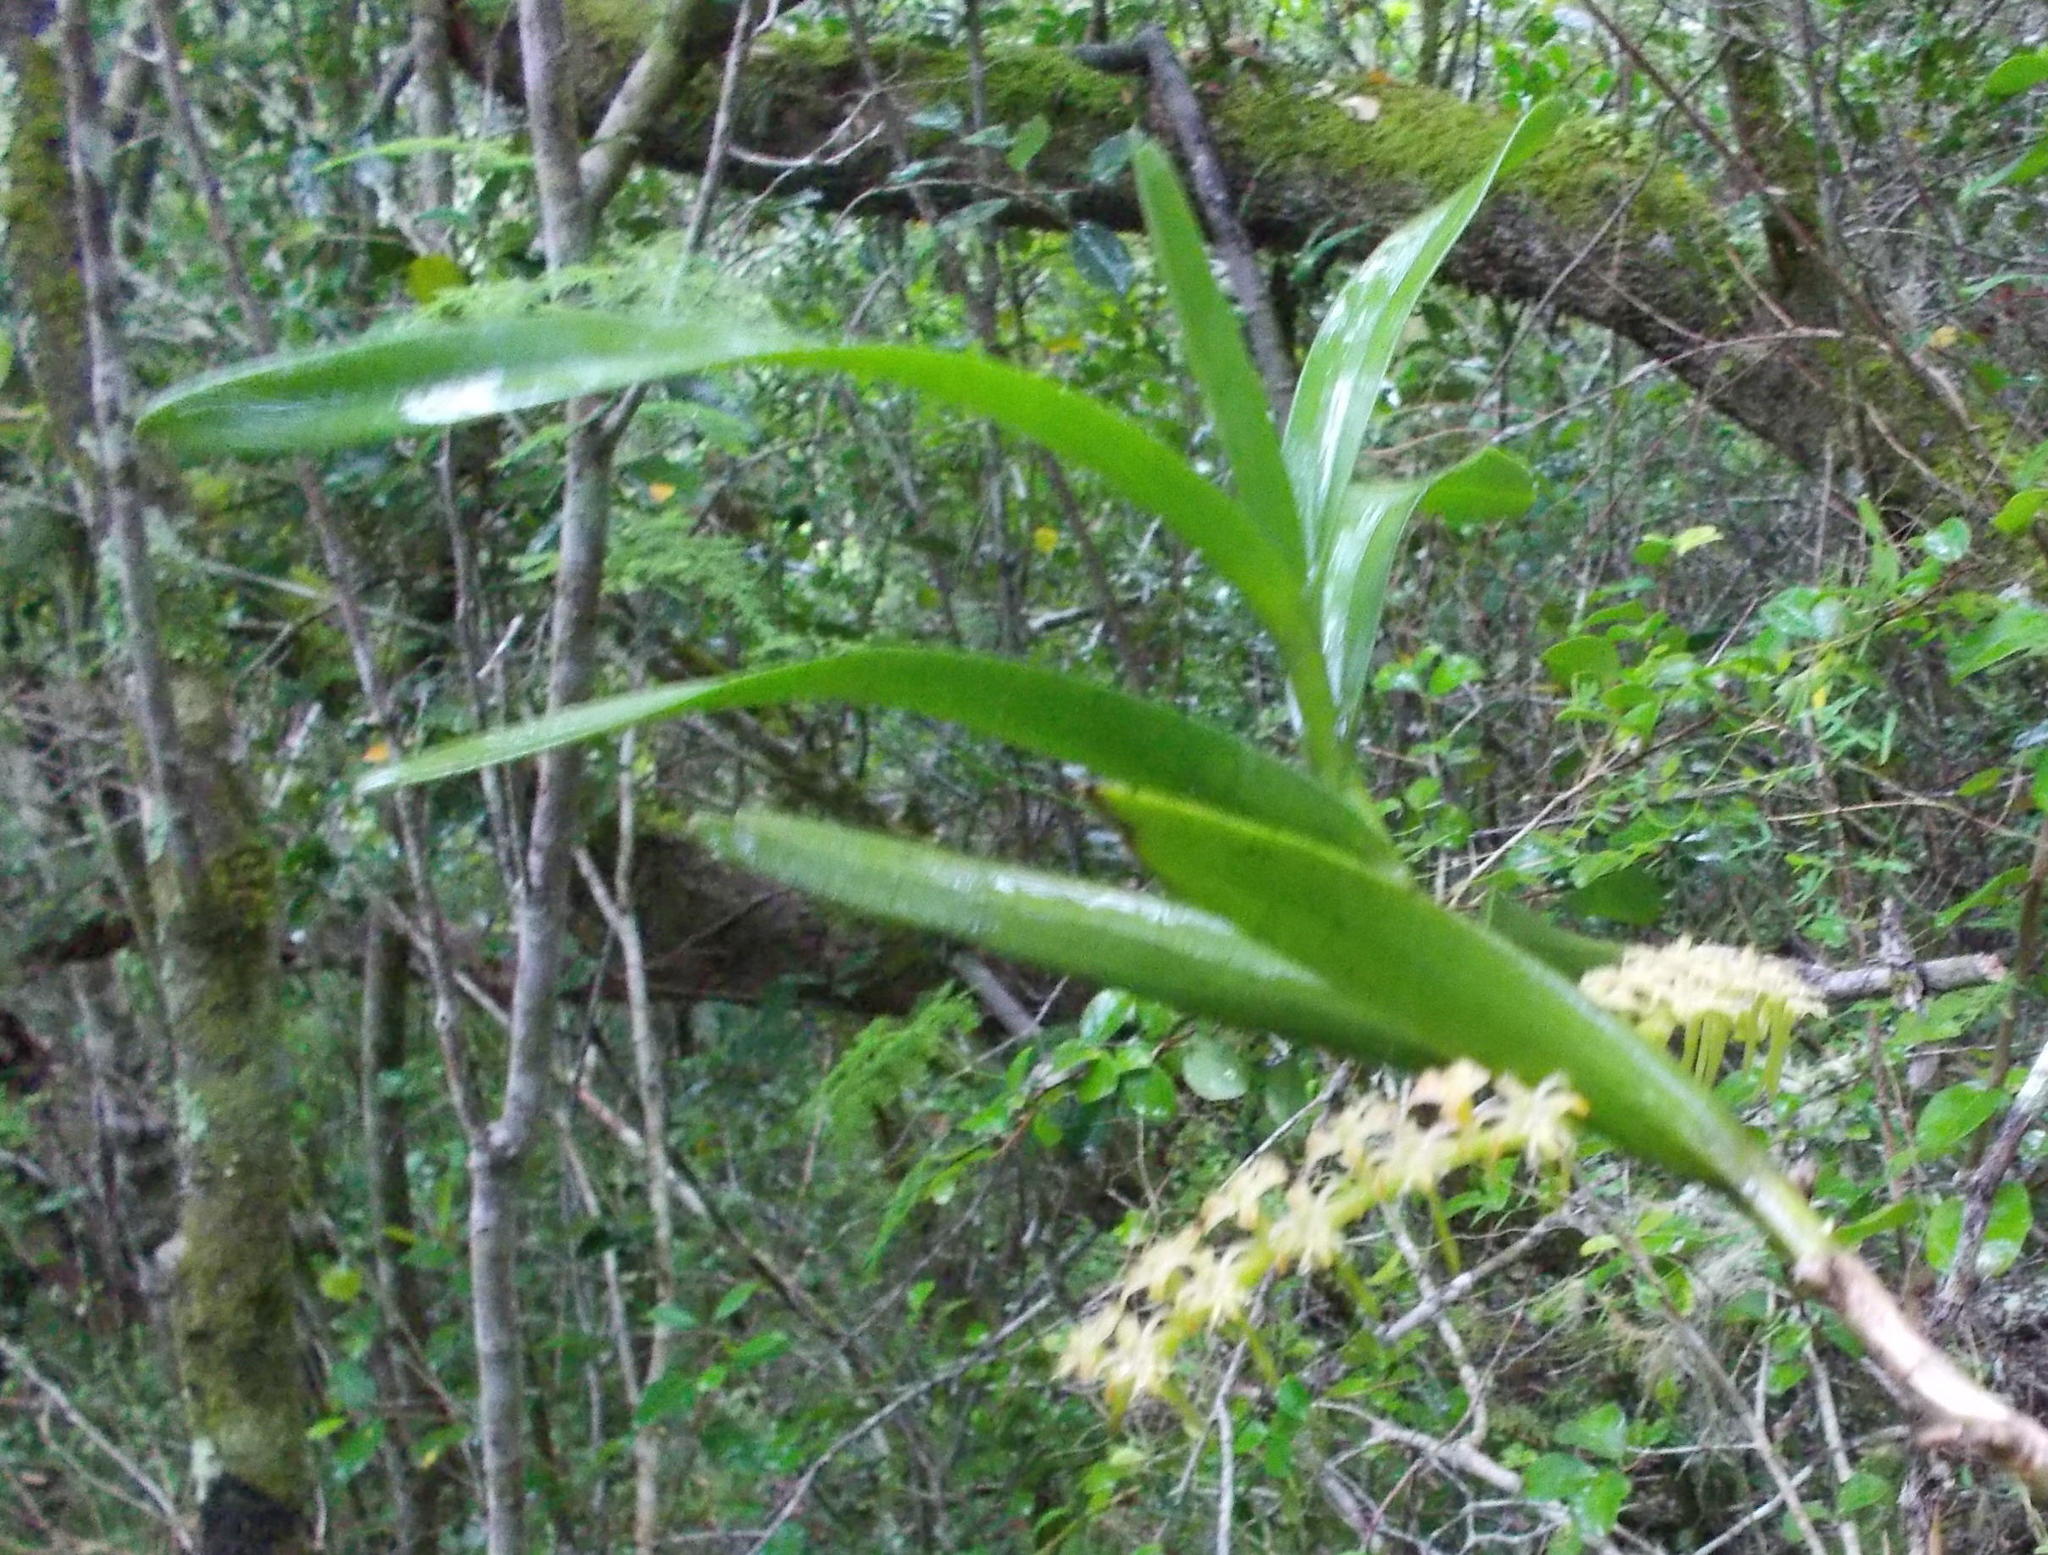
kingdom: Plantae
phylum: Tracheophyta
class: Liliopsida
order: Asparagales
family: Orchidaceae
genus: Tridactyle
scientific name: Tridactyle bicaudata
